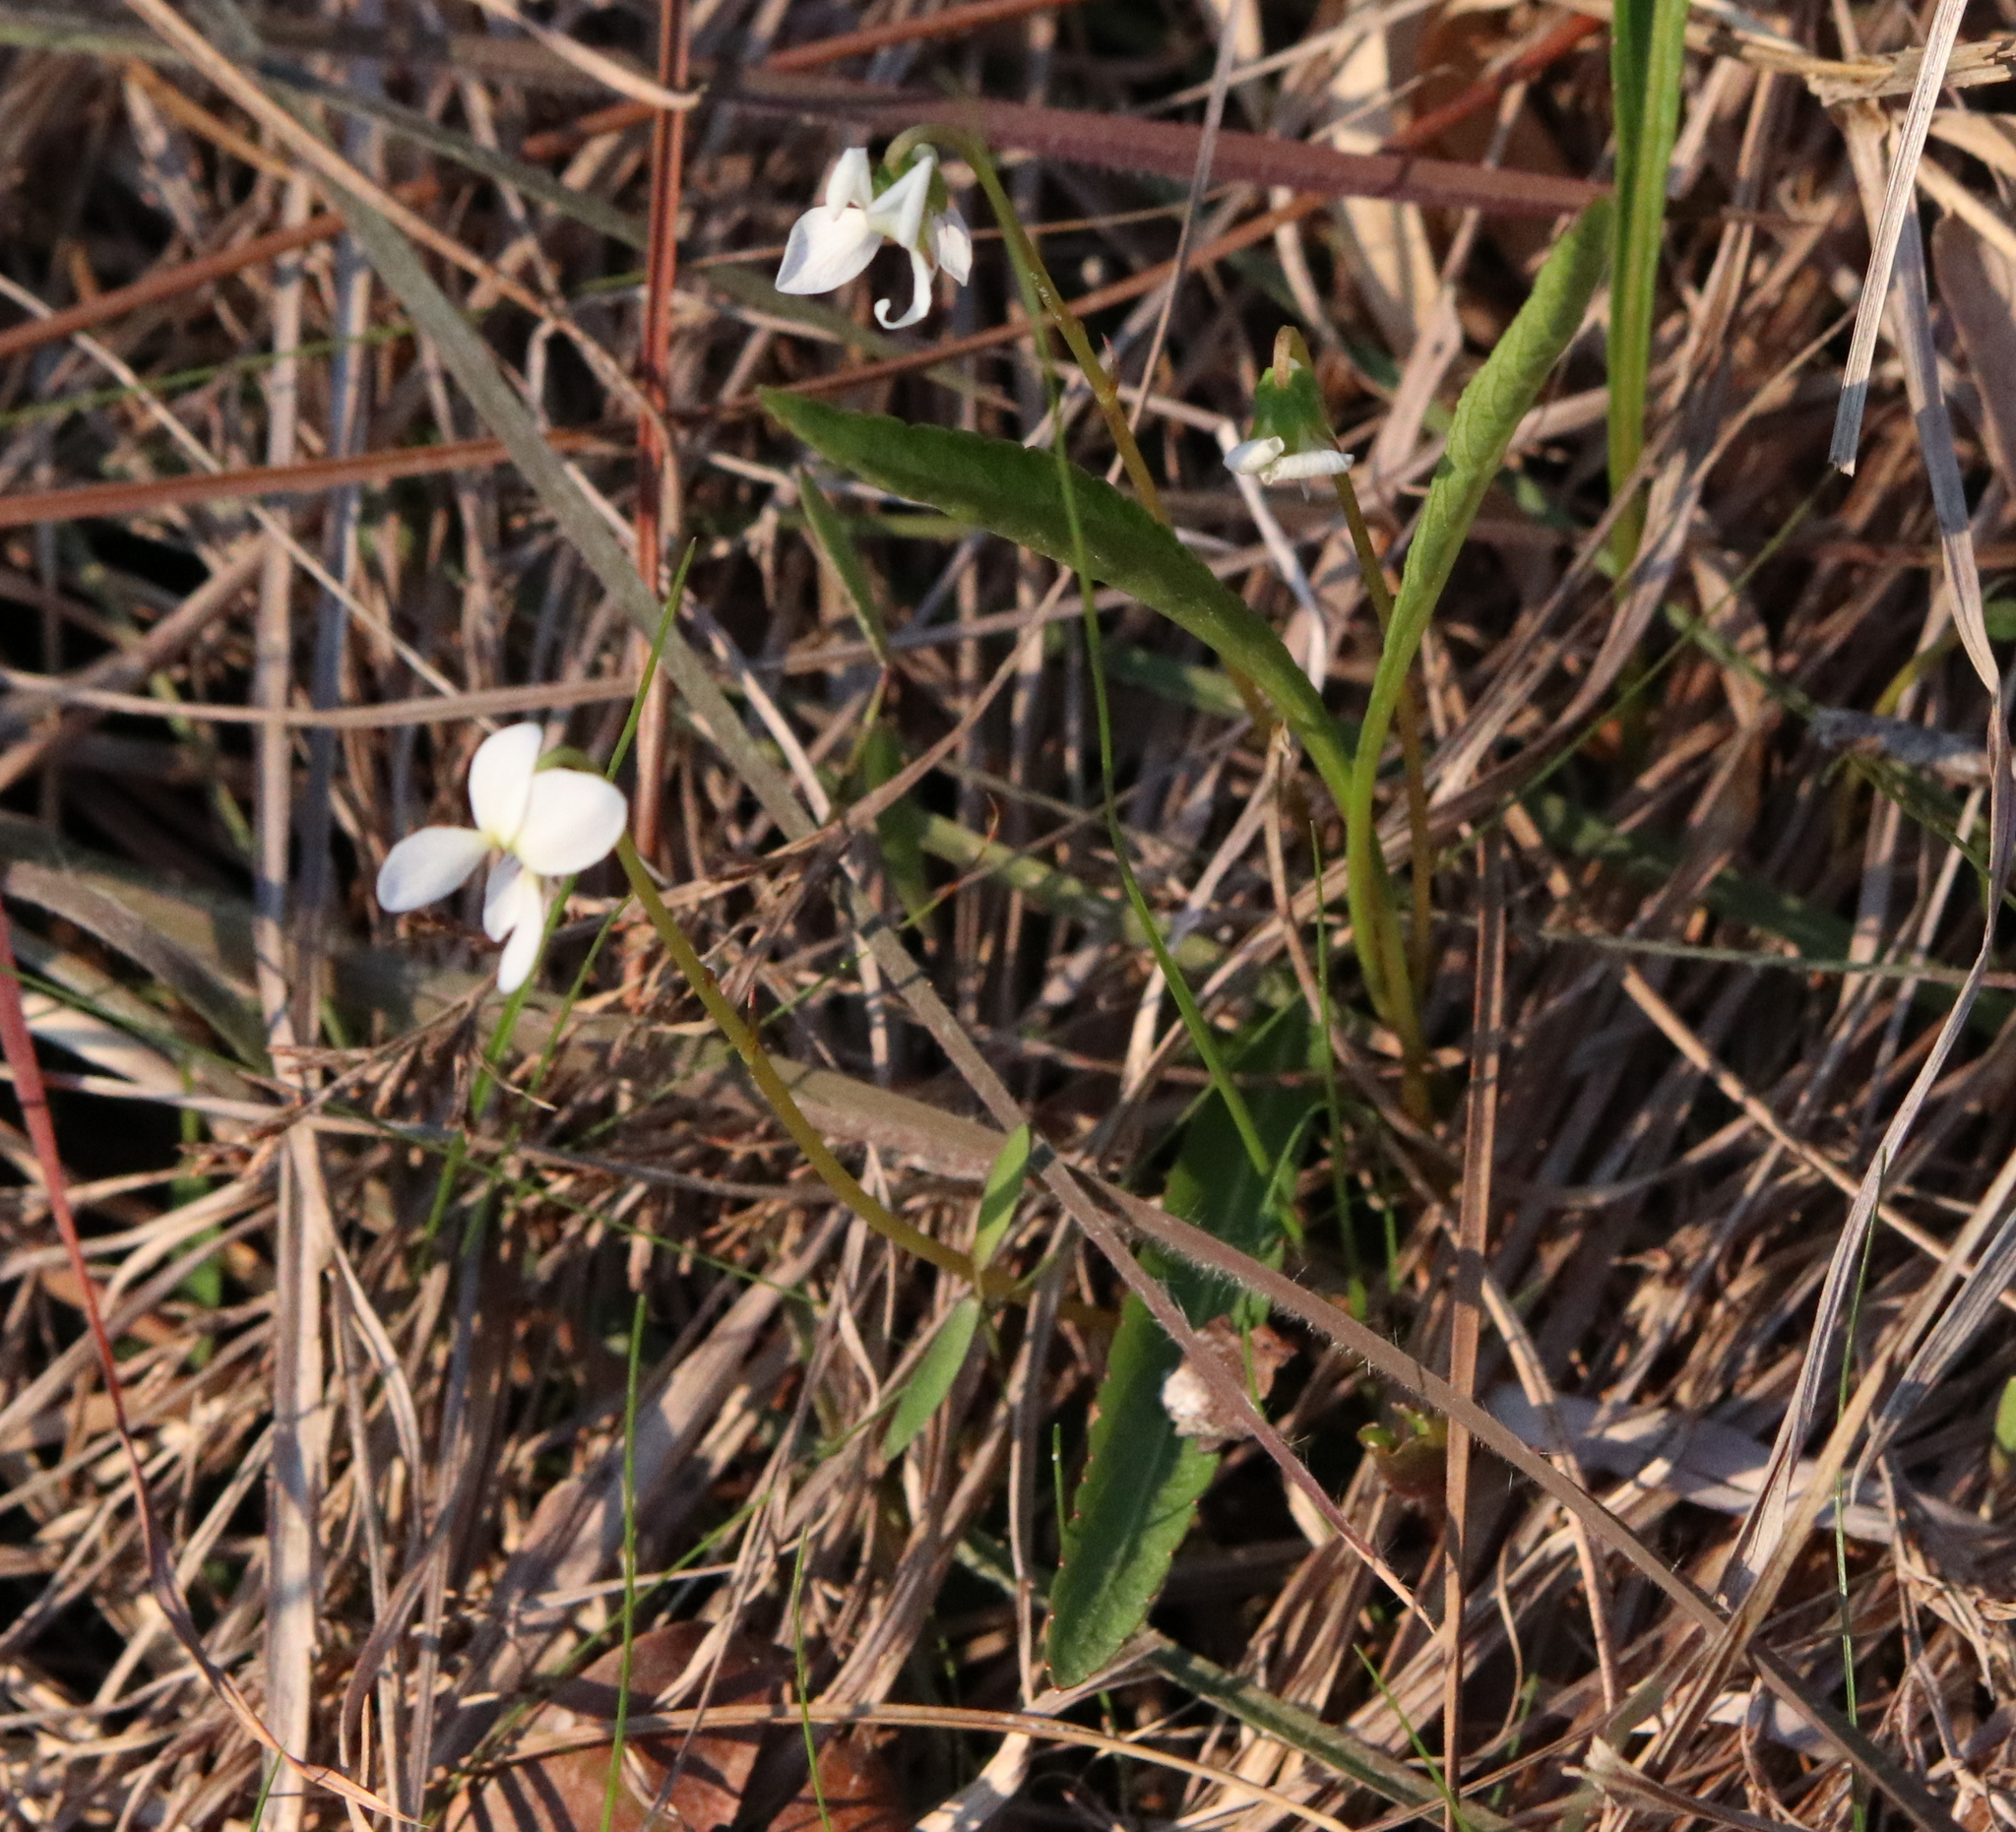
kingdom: Plantae
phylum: Tracheophyta
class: Magnoliopsida
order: Malpighiales
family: Violaceae
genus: Viola
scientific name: Viola lanceolata
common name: Bog white violet
